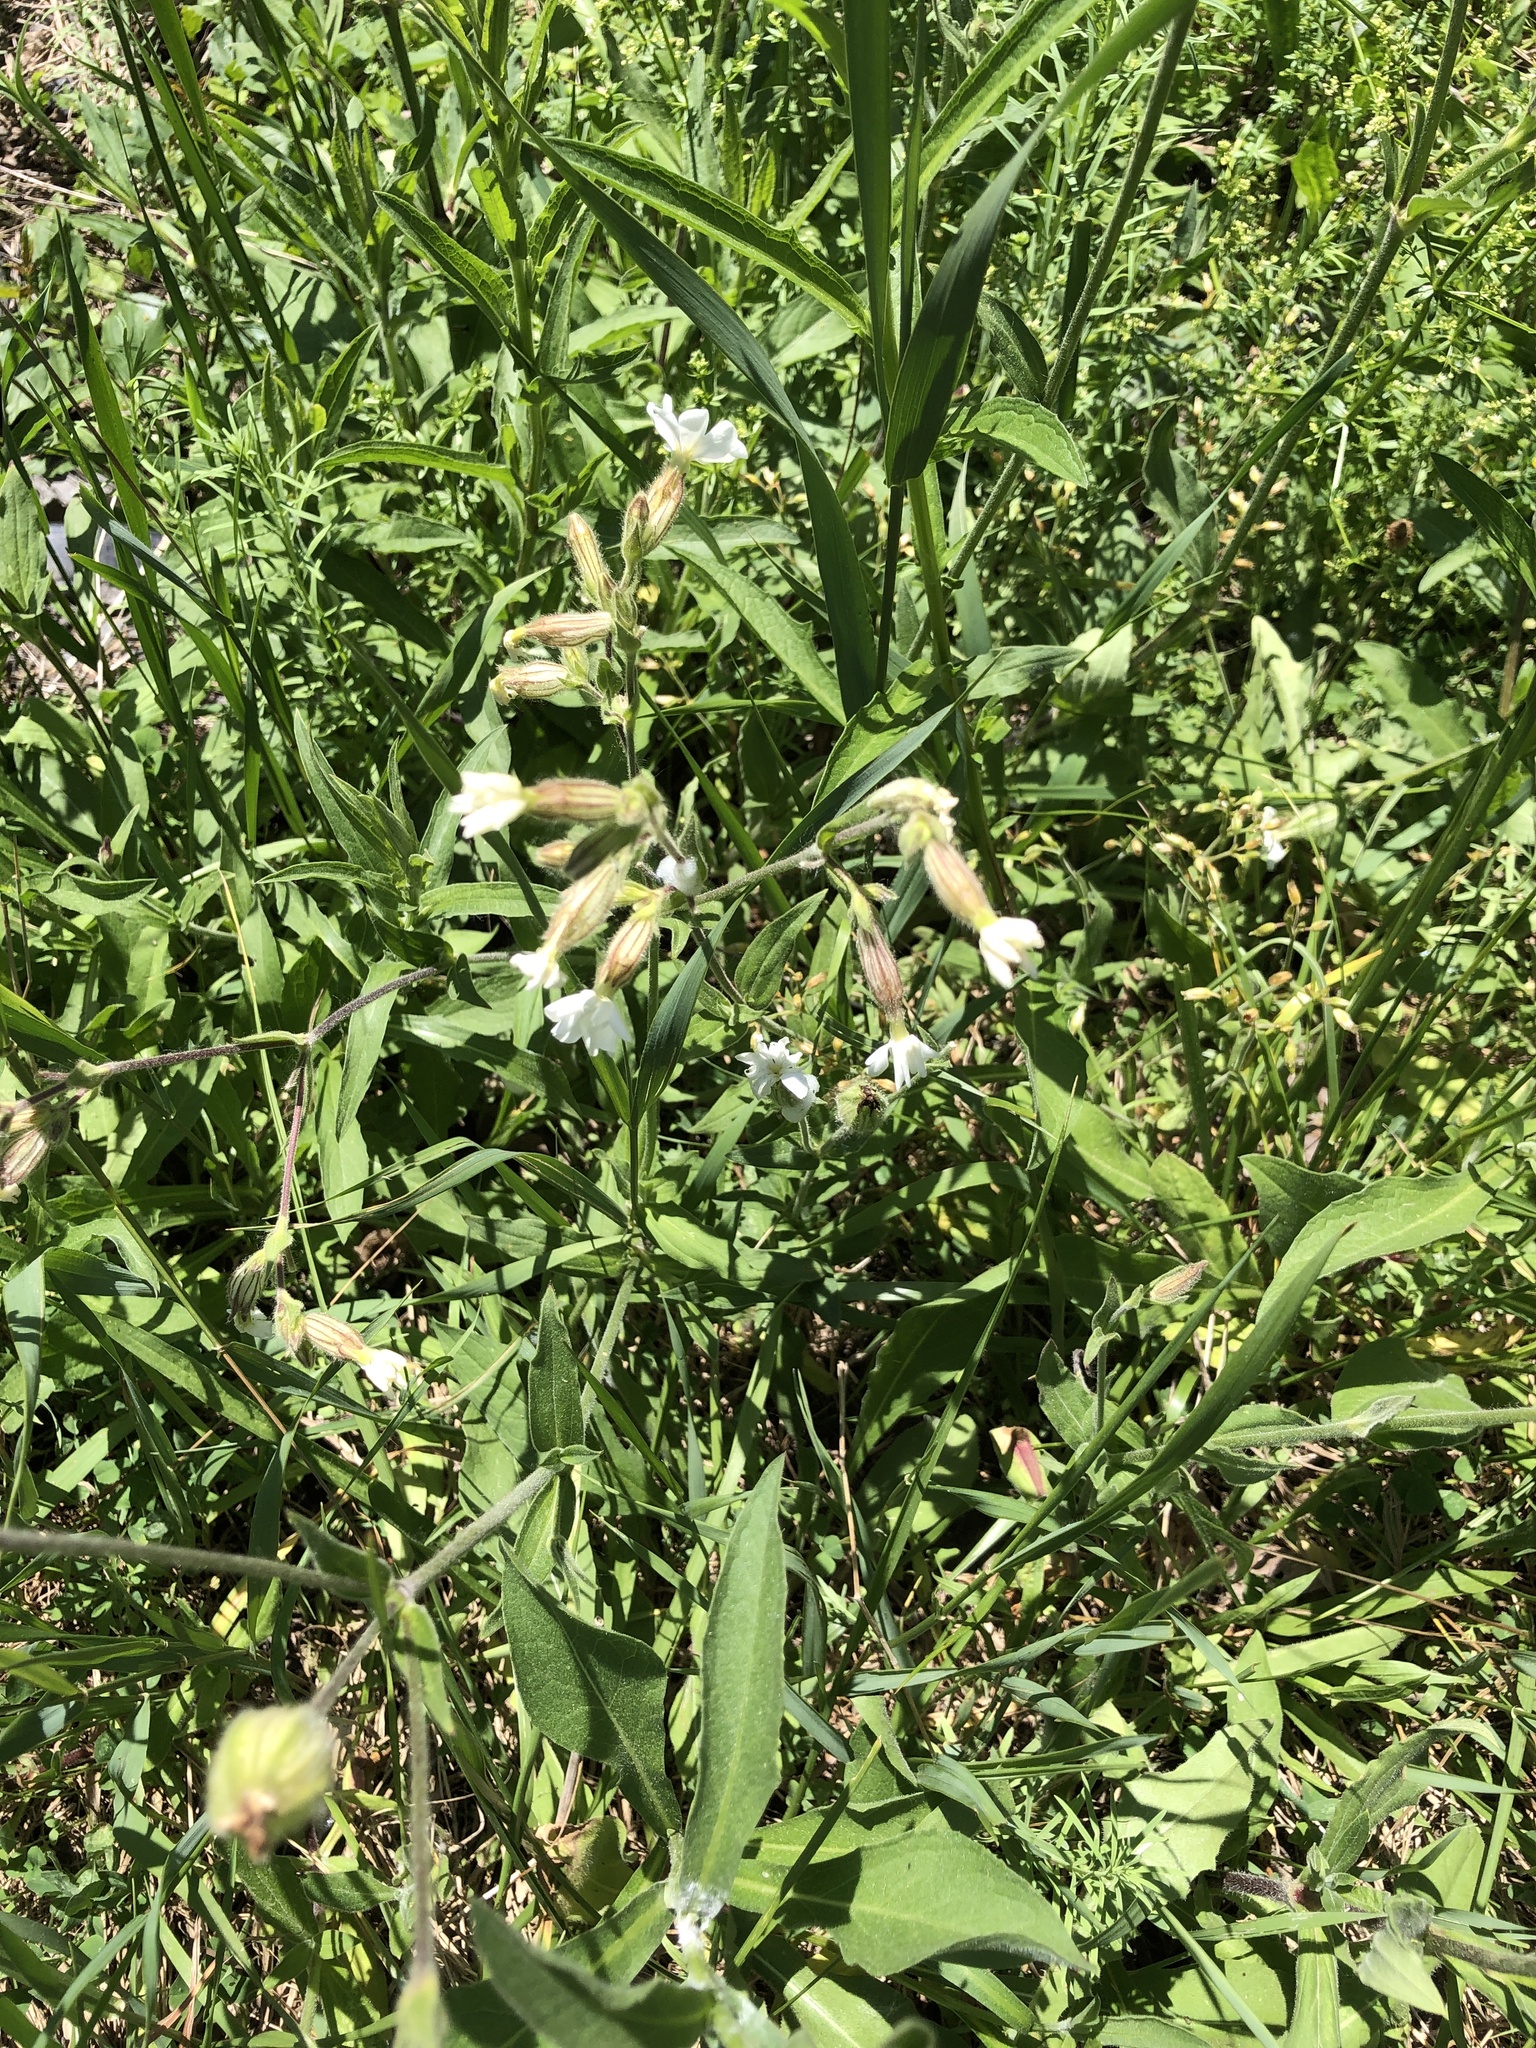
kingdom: Plantae
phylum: Tracheophyta
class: Magnoliopsida
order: Caryophyllales
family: Caryophyllaceae
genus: Silene
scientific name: Silene latifolia
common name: White campion
